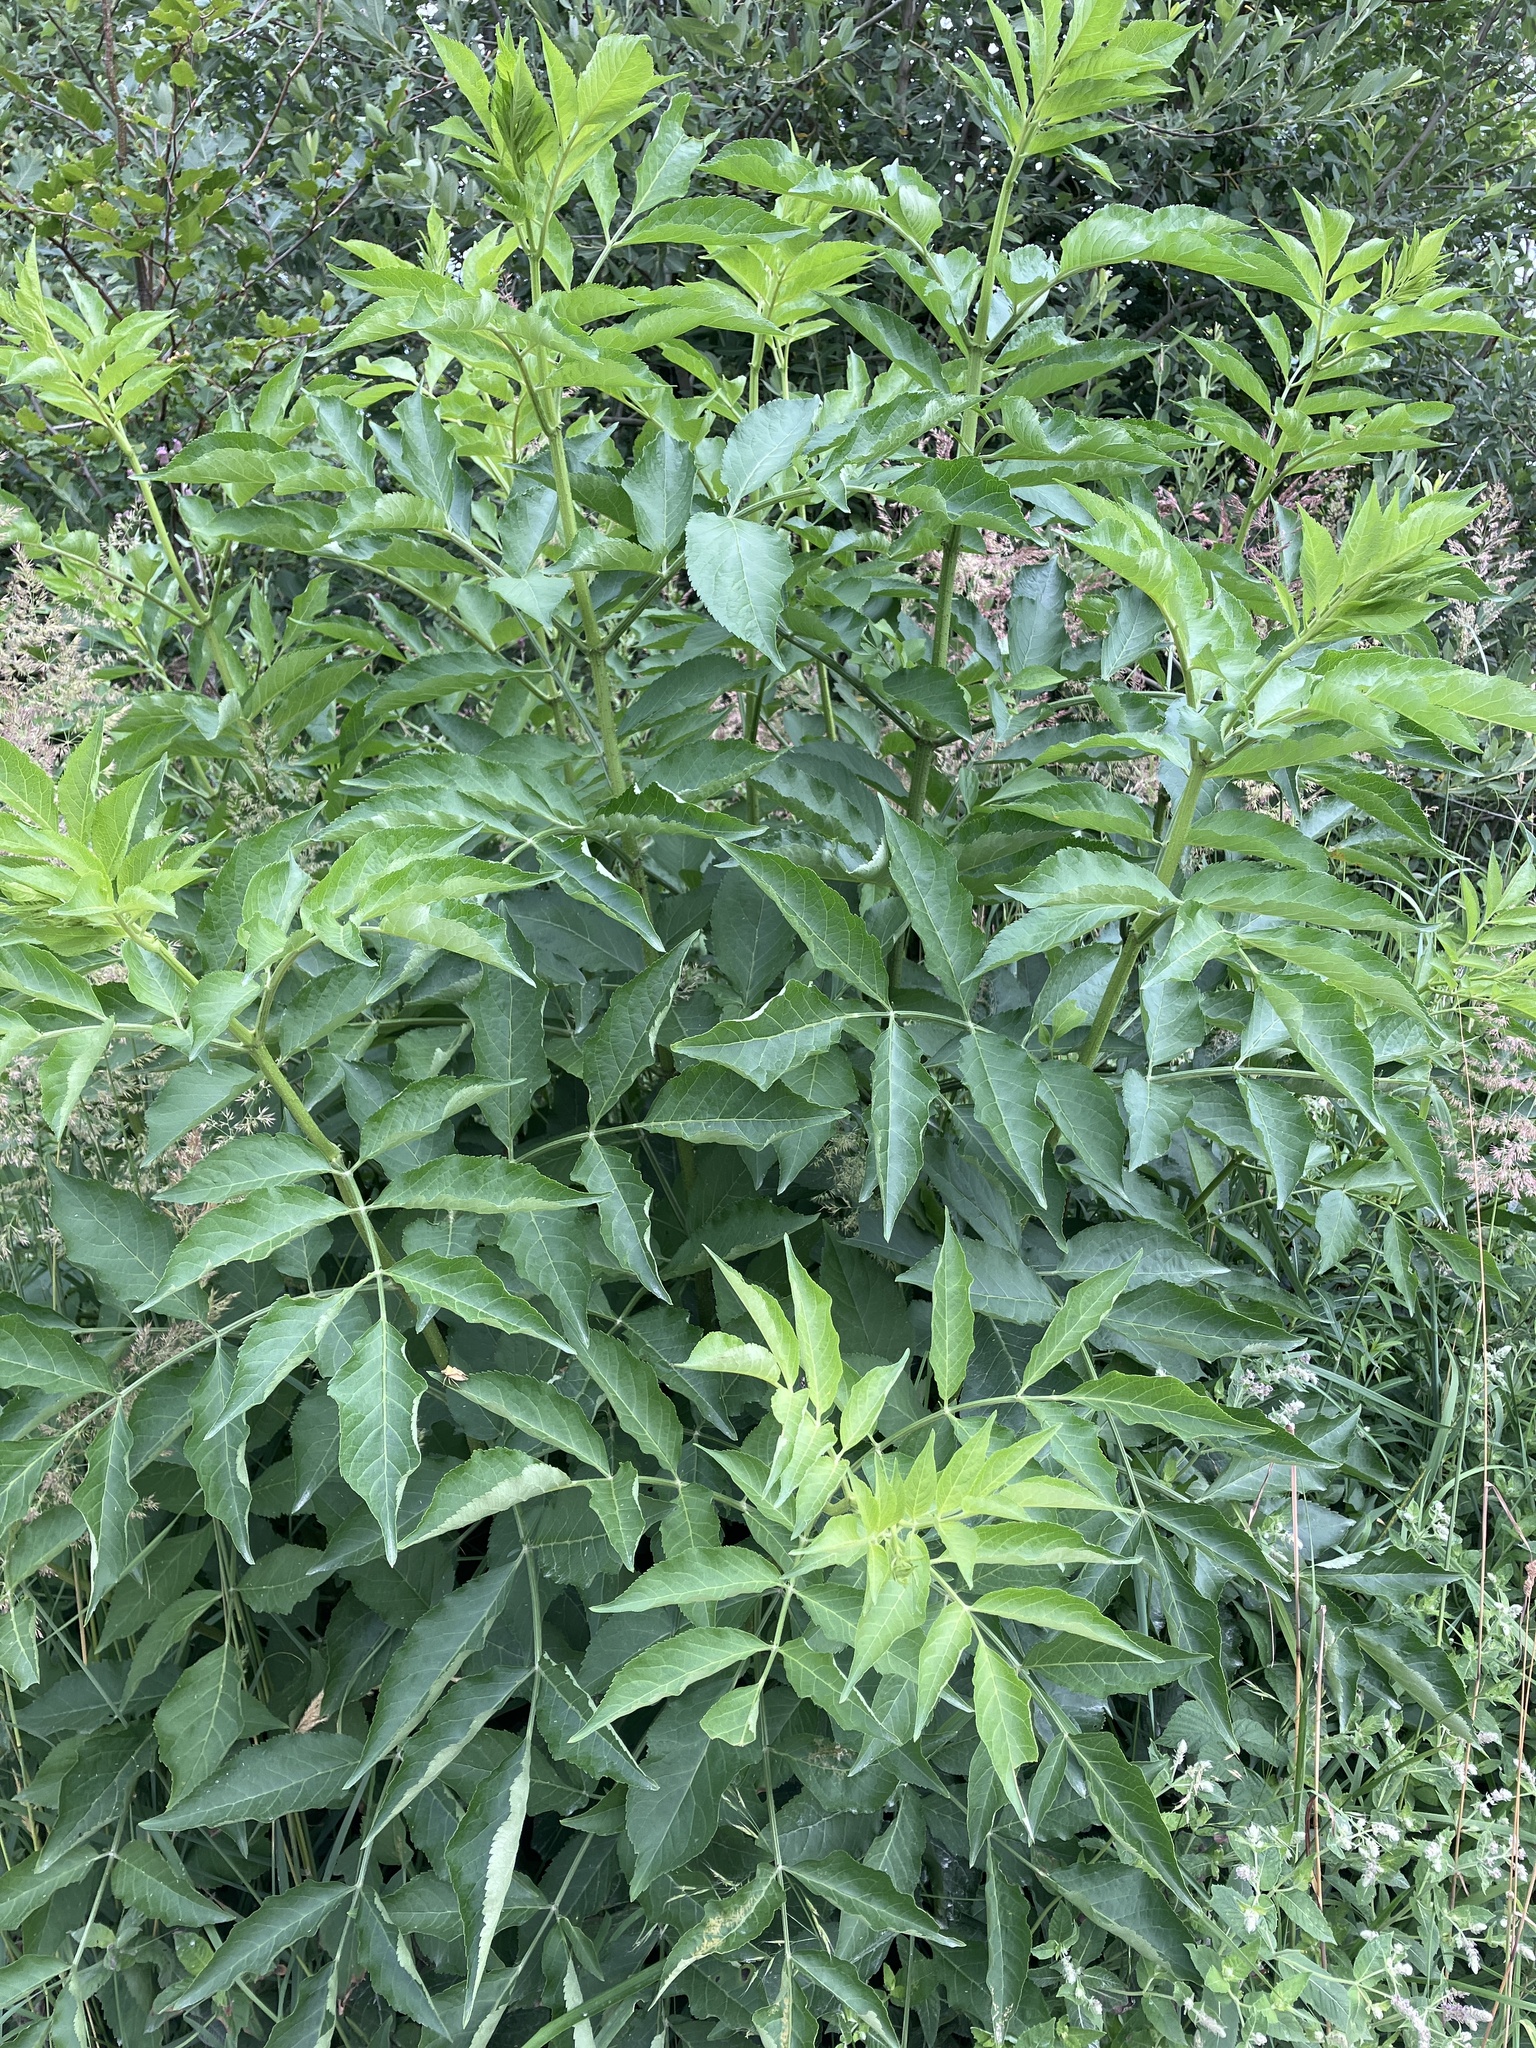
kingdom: Plantae
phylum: Tracheophyta
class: Magnoliopsida
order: Dipsacales
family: Viburnaceae
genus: Sambucus
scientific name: Sambucus nigra
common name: Elder
